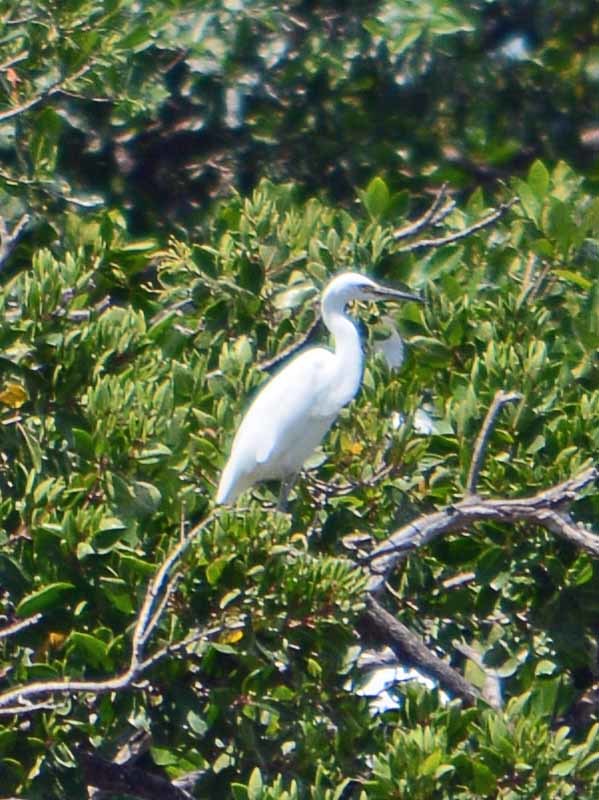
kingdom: Animalia
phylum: Chordata
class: Aves
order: Pelecaniformes
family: Ardeidae
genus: Egretta
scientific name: Egretta thula
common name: Snowy egret
